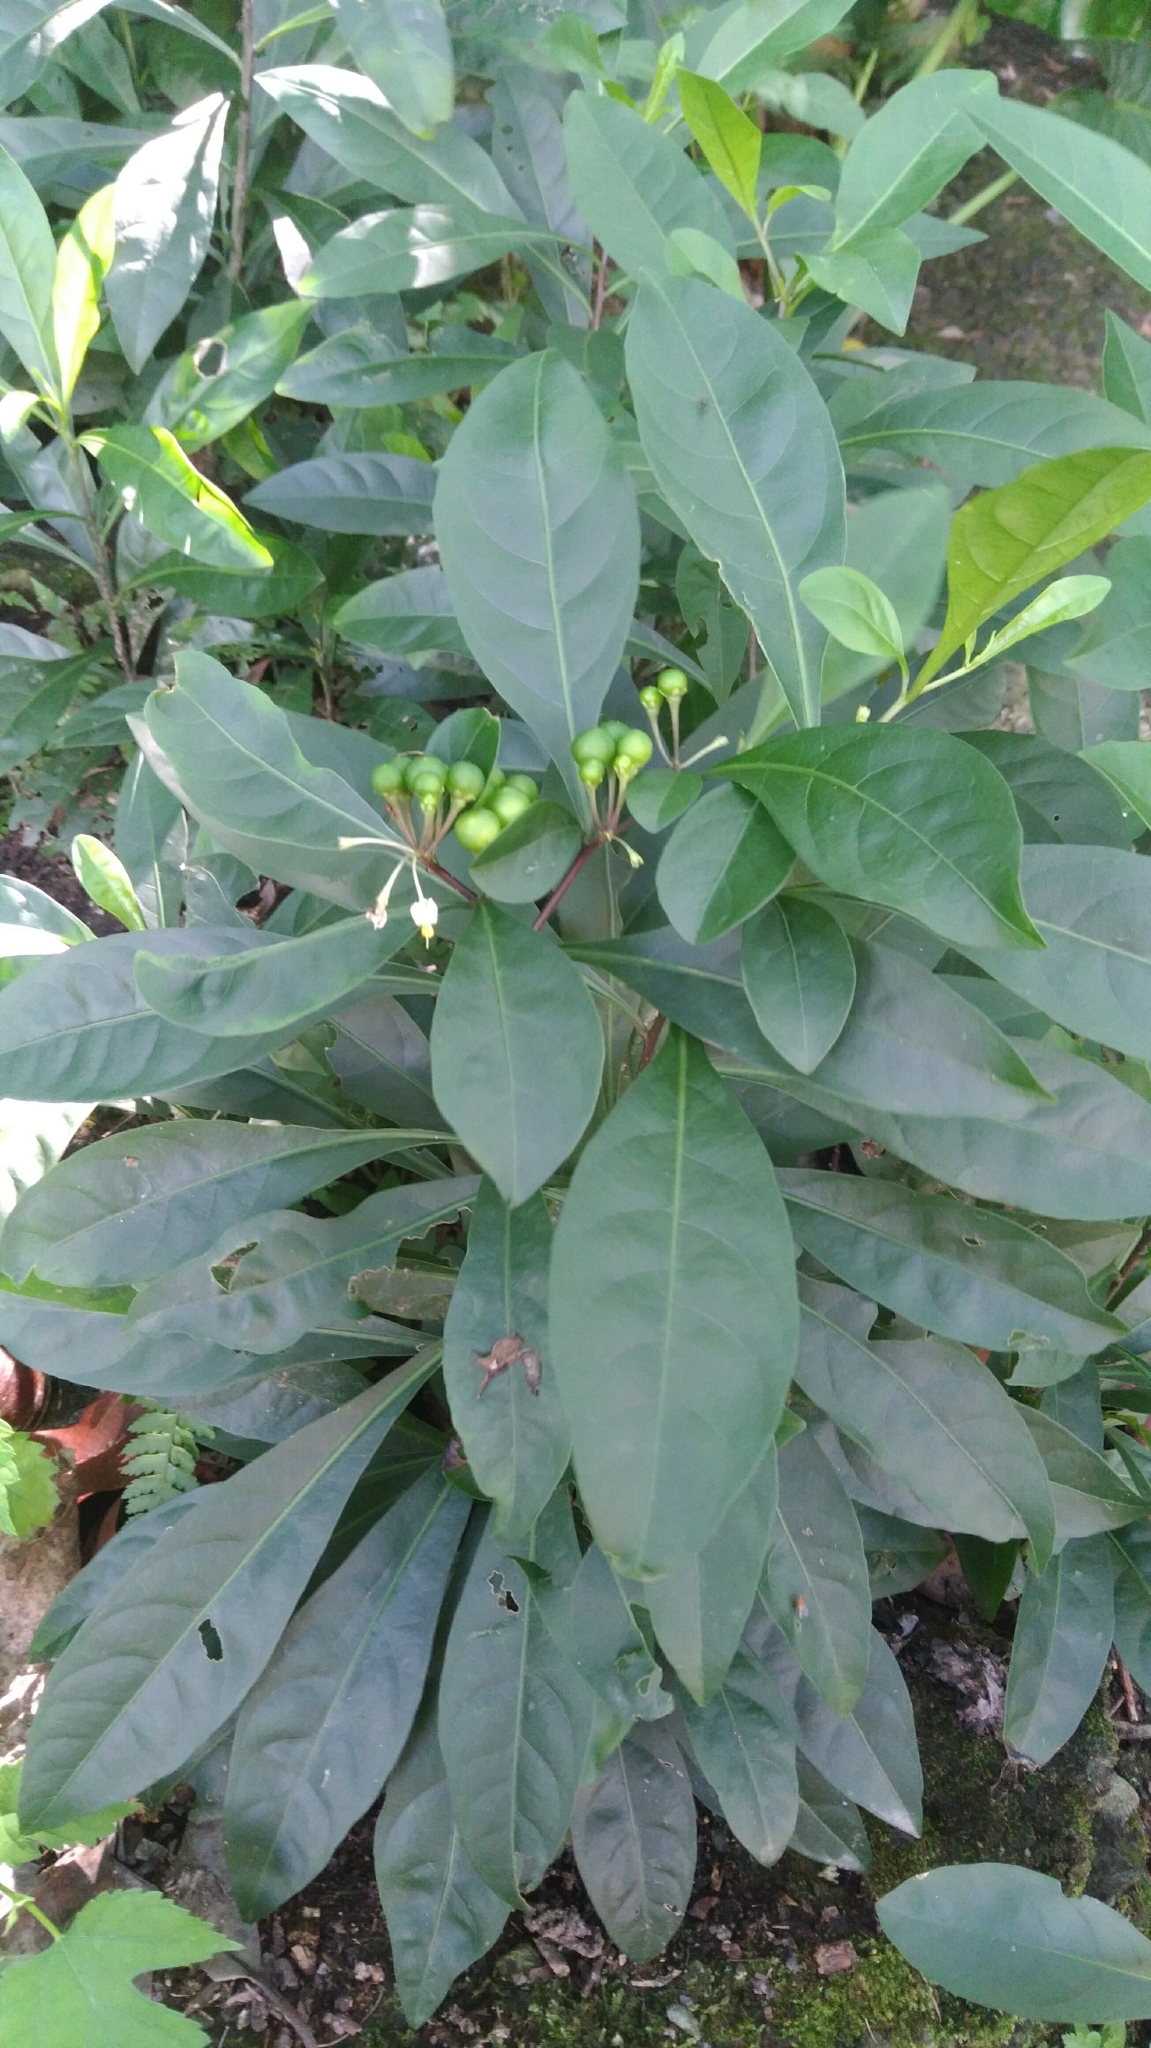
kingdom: Plantae
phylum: Tracheophyta
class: Magnoliopsida
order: Solanales
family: Solanaceae
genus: Solanum
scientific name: Solanum diphyllum
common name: Twoleaf nightshade
